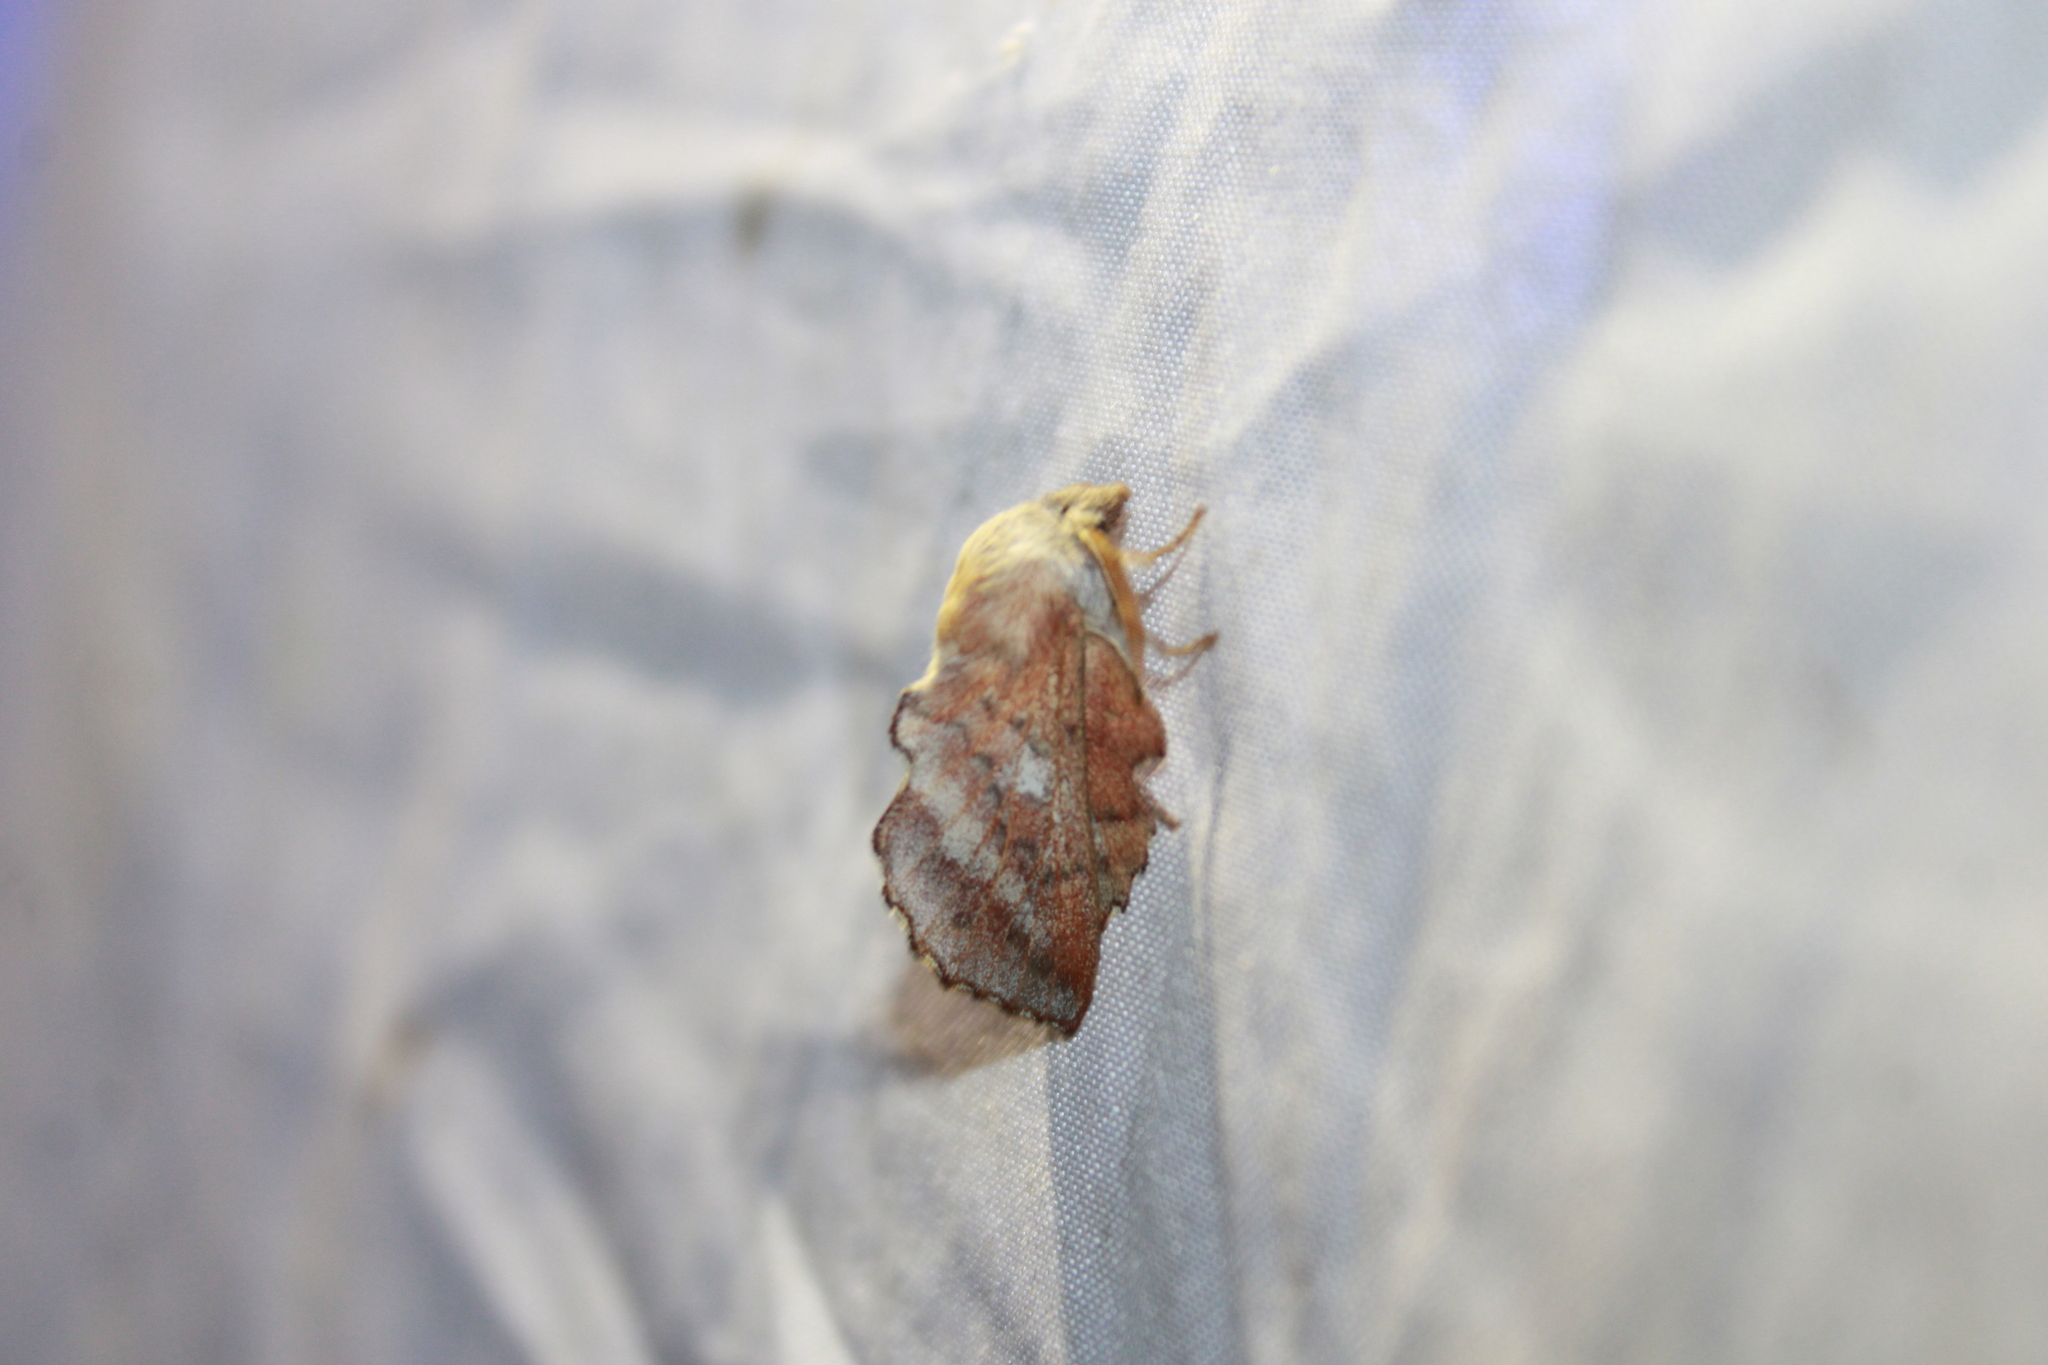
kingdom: Animalia
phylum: Arthropoda
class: Insecta
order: Lepidoptera
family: Lasiocampidae
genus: Phyllodesma
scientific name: Phyllodesma americana
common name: American lappet moth
